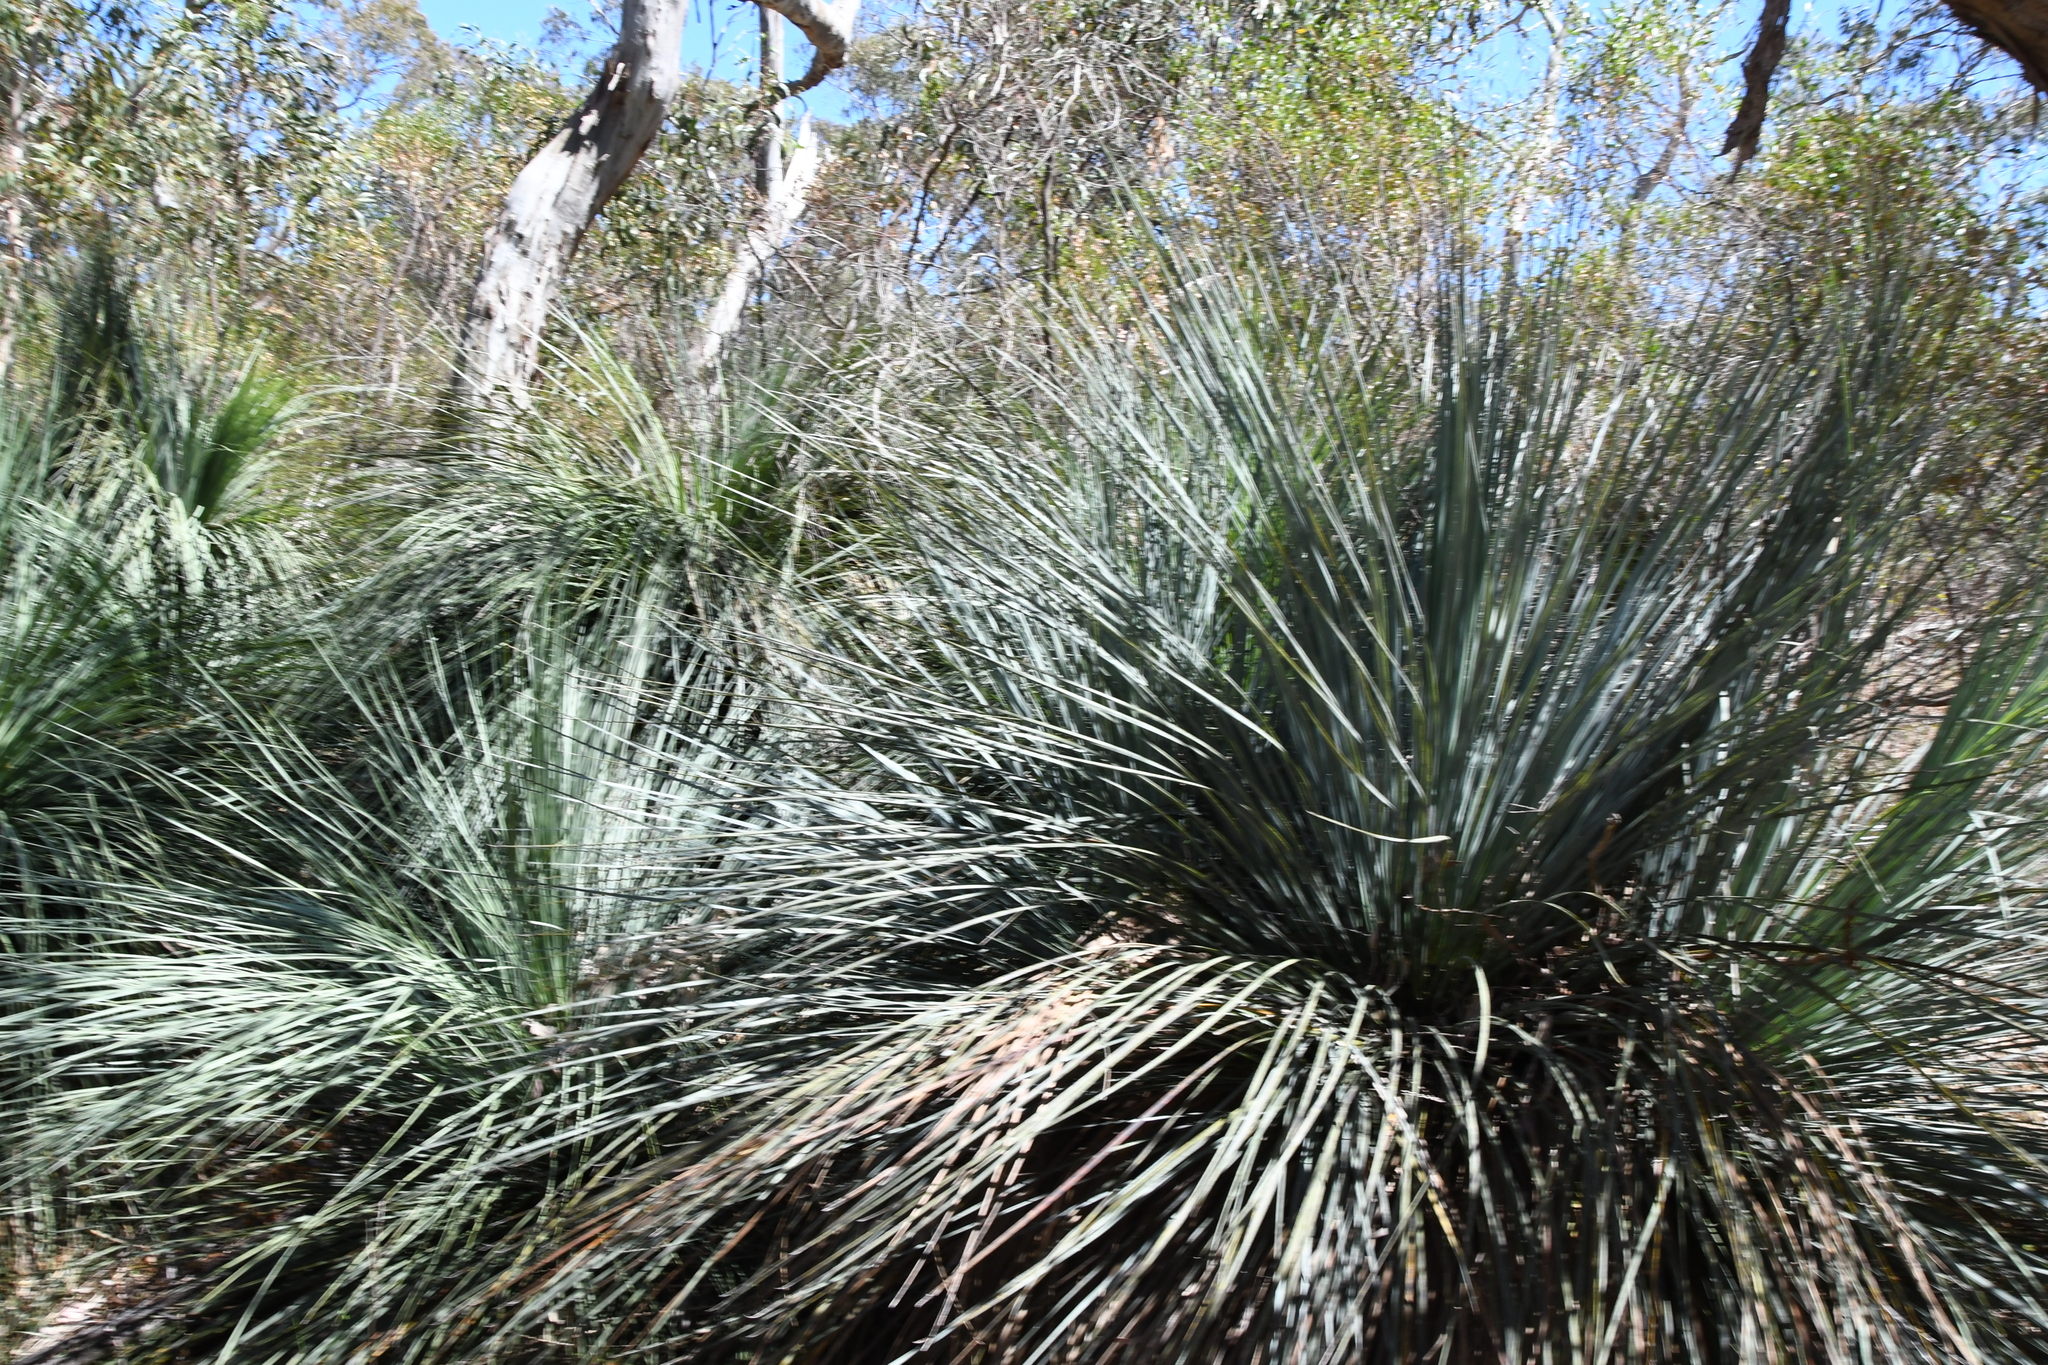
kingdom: Plantae
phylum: Tracheophyta
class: Liliopsida
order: Asparagales
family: Asphodelaceae
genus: Xanthorrhoea
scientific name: Xanthorrhoea semiplana
